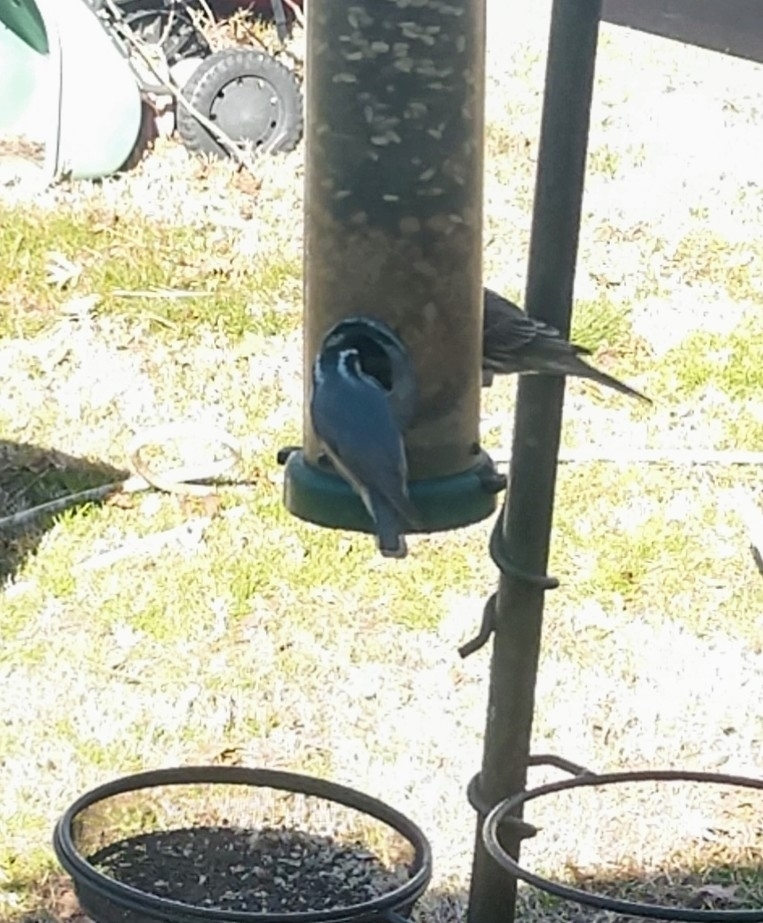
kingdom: Animalia
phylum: Chordata
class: Aves
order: Passeriformes
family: Sittidae
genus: Sitta
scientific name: Sitta canadensis
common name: Red-breasted nuthatch
